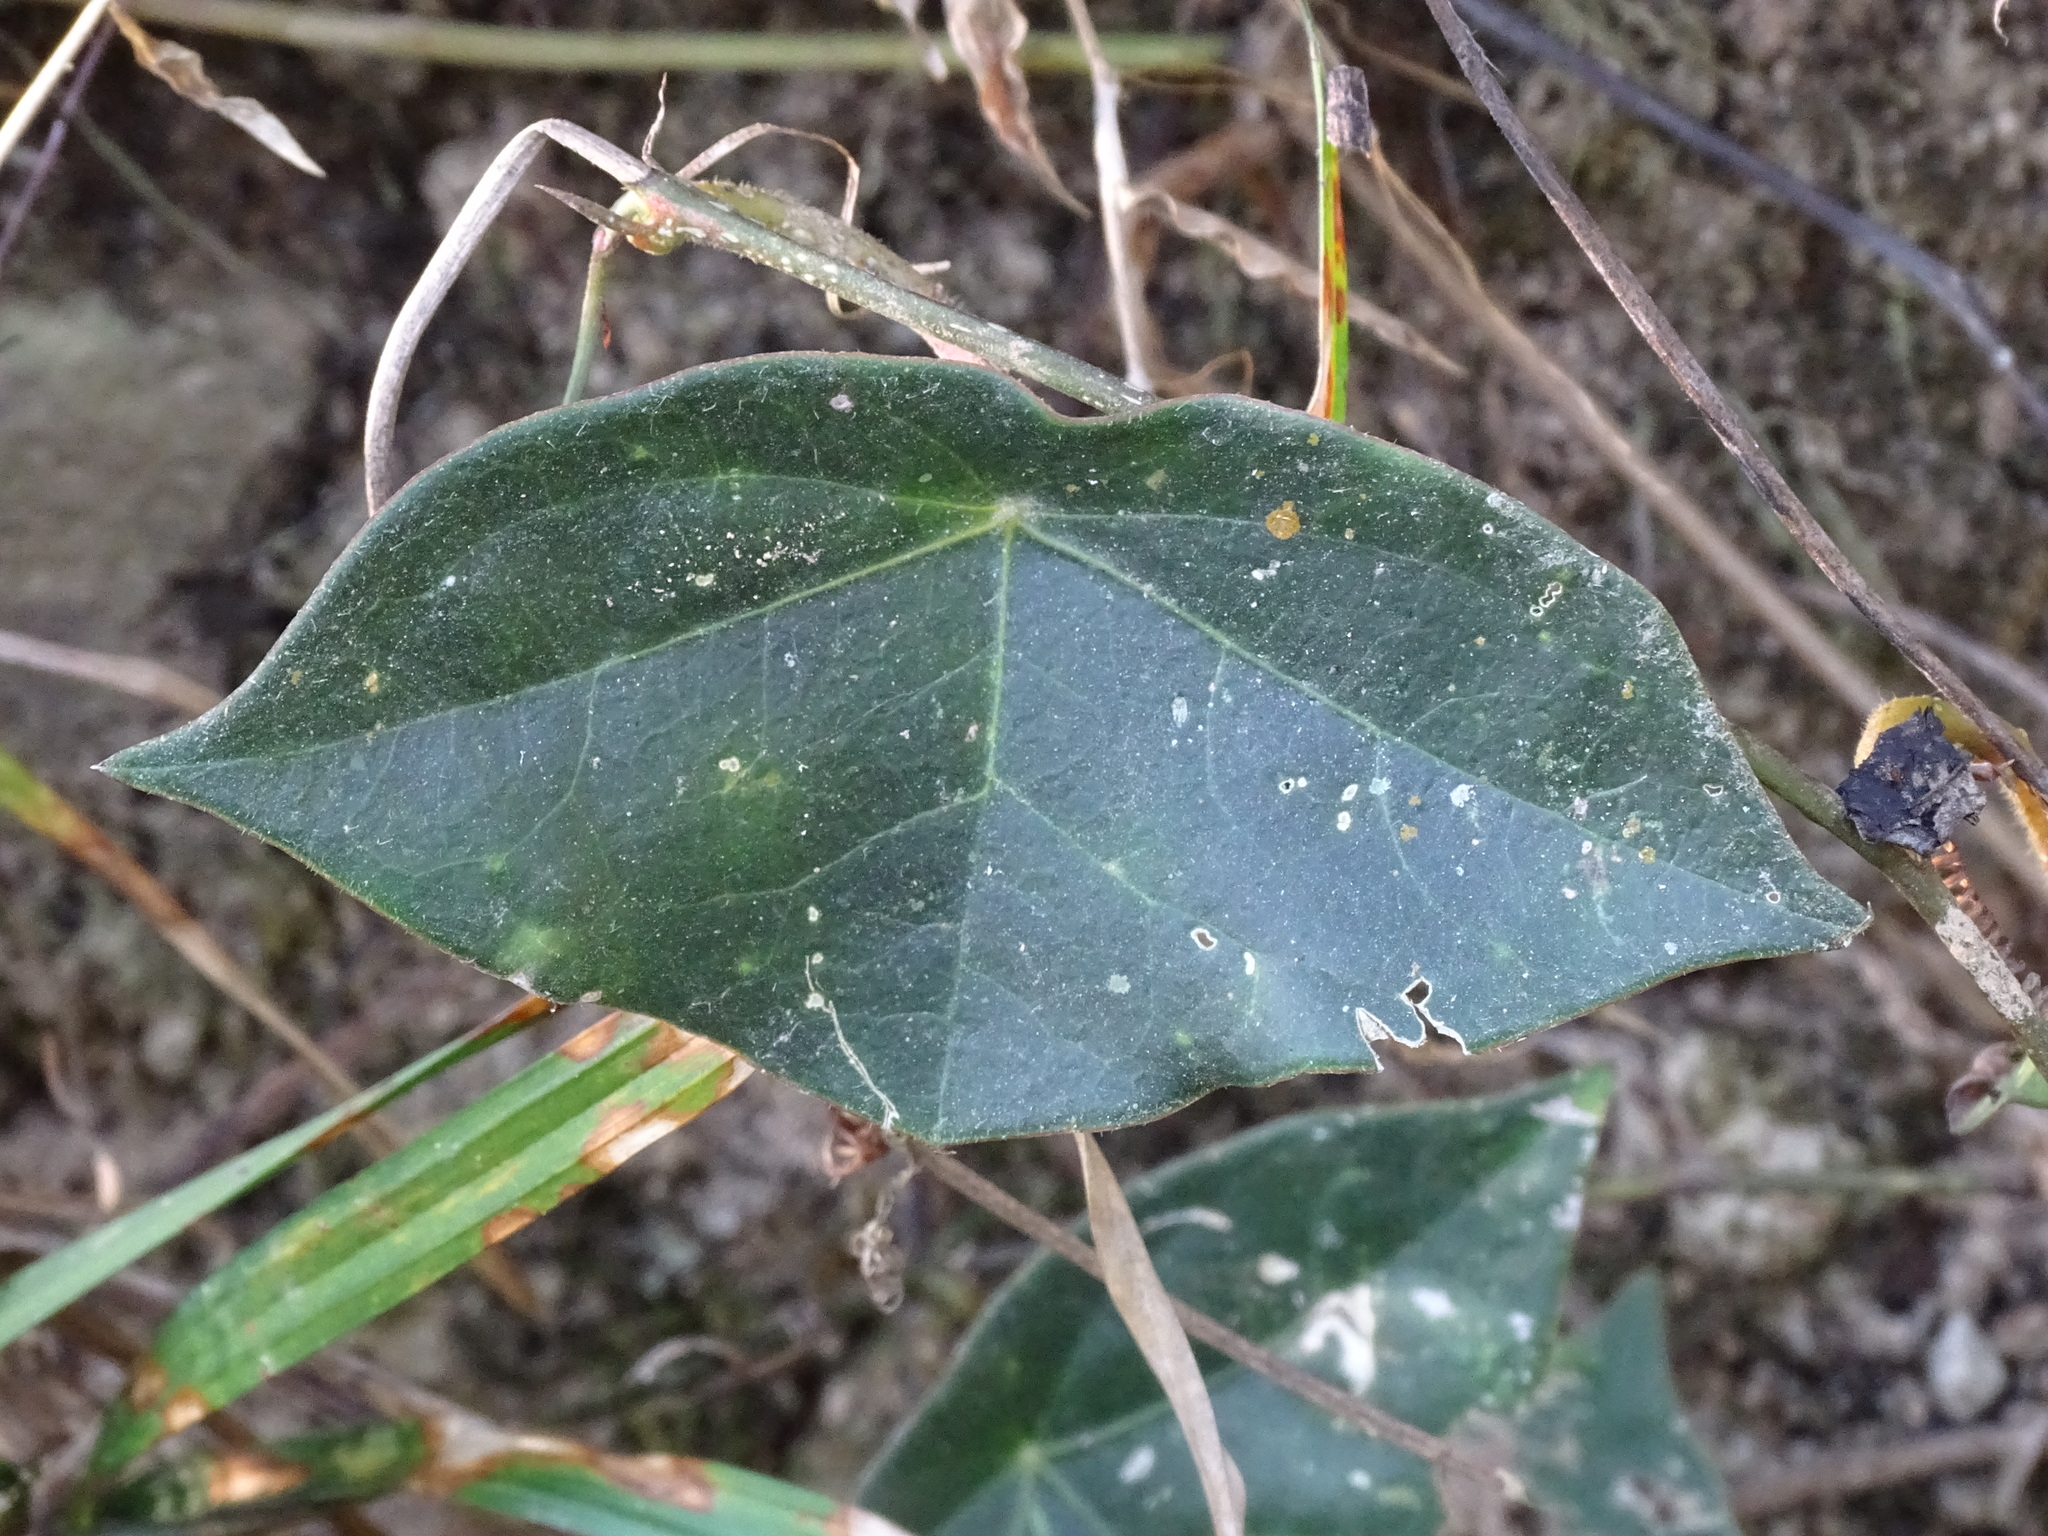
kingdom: Plantae
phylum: Tracheophyta
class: Magnoliopsida
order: Malpighiales
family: Passifloraceae
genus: Passiflora
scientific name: Passiflora sexocellata
